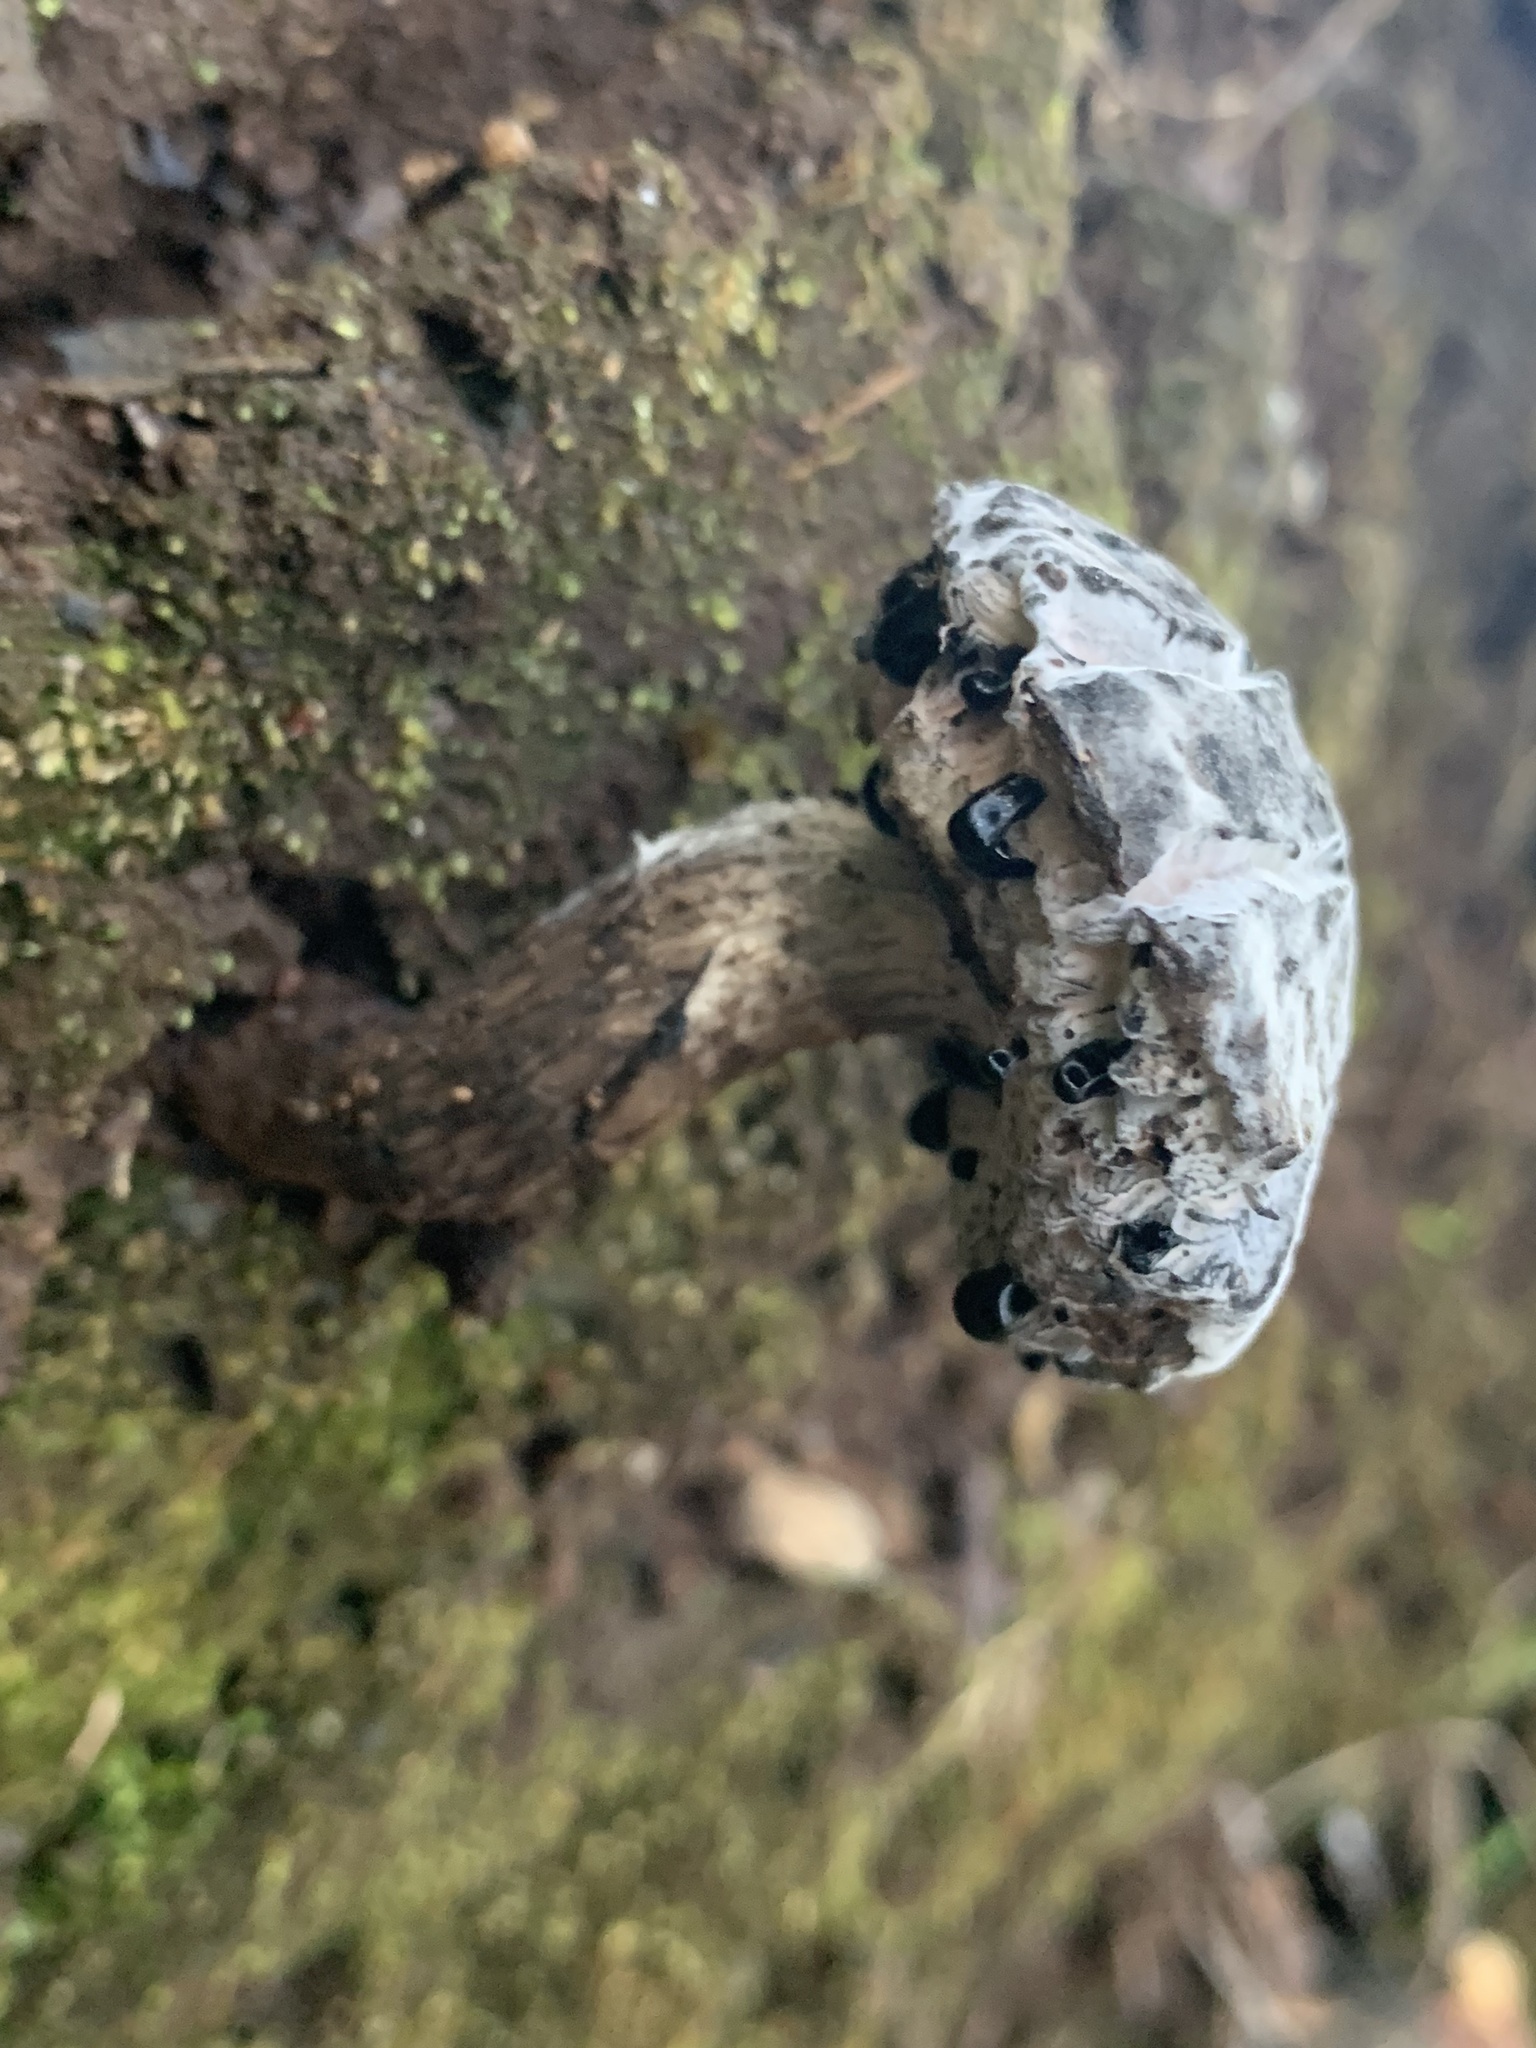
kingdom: Fungi
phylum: Basidiomycota
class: Agaricomycetes
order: Boletales
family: Boletaceae
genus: Strobilomyces
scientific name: Strobilomyces strobilaceus
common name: Old man of the woods
